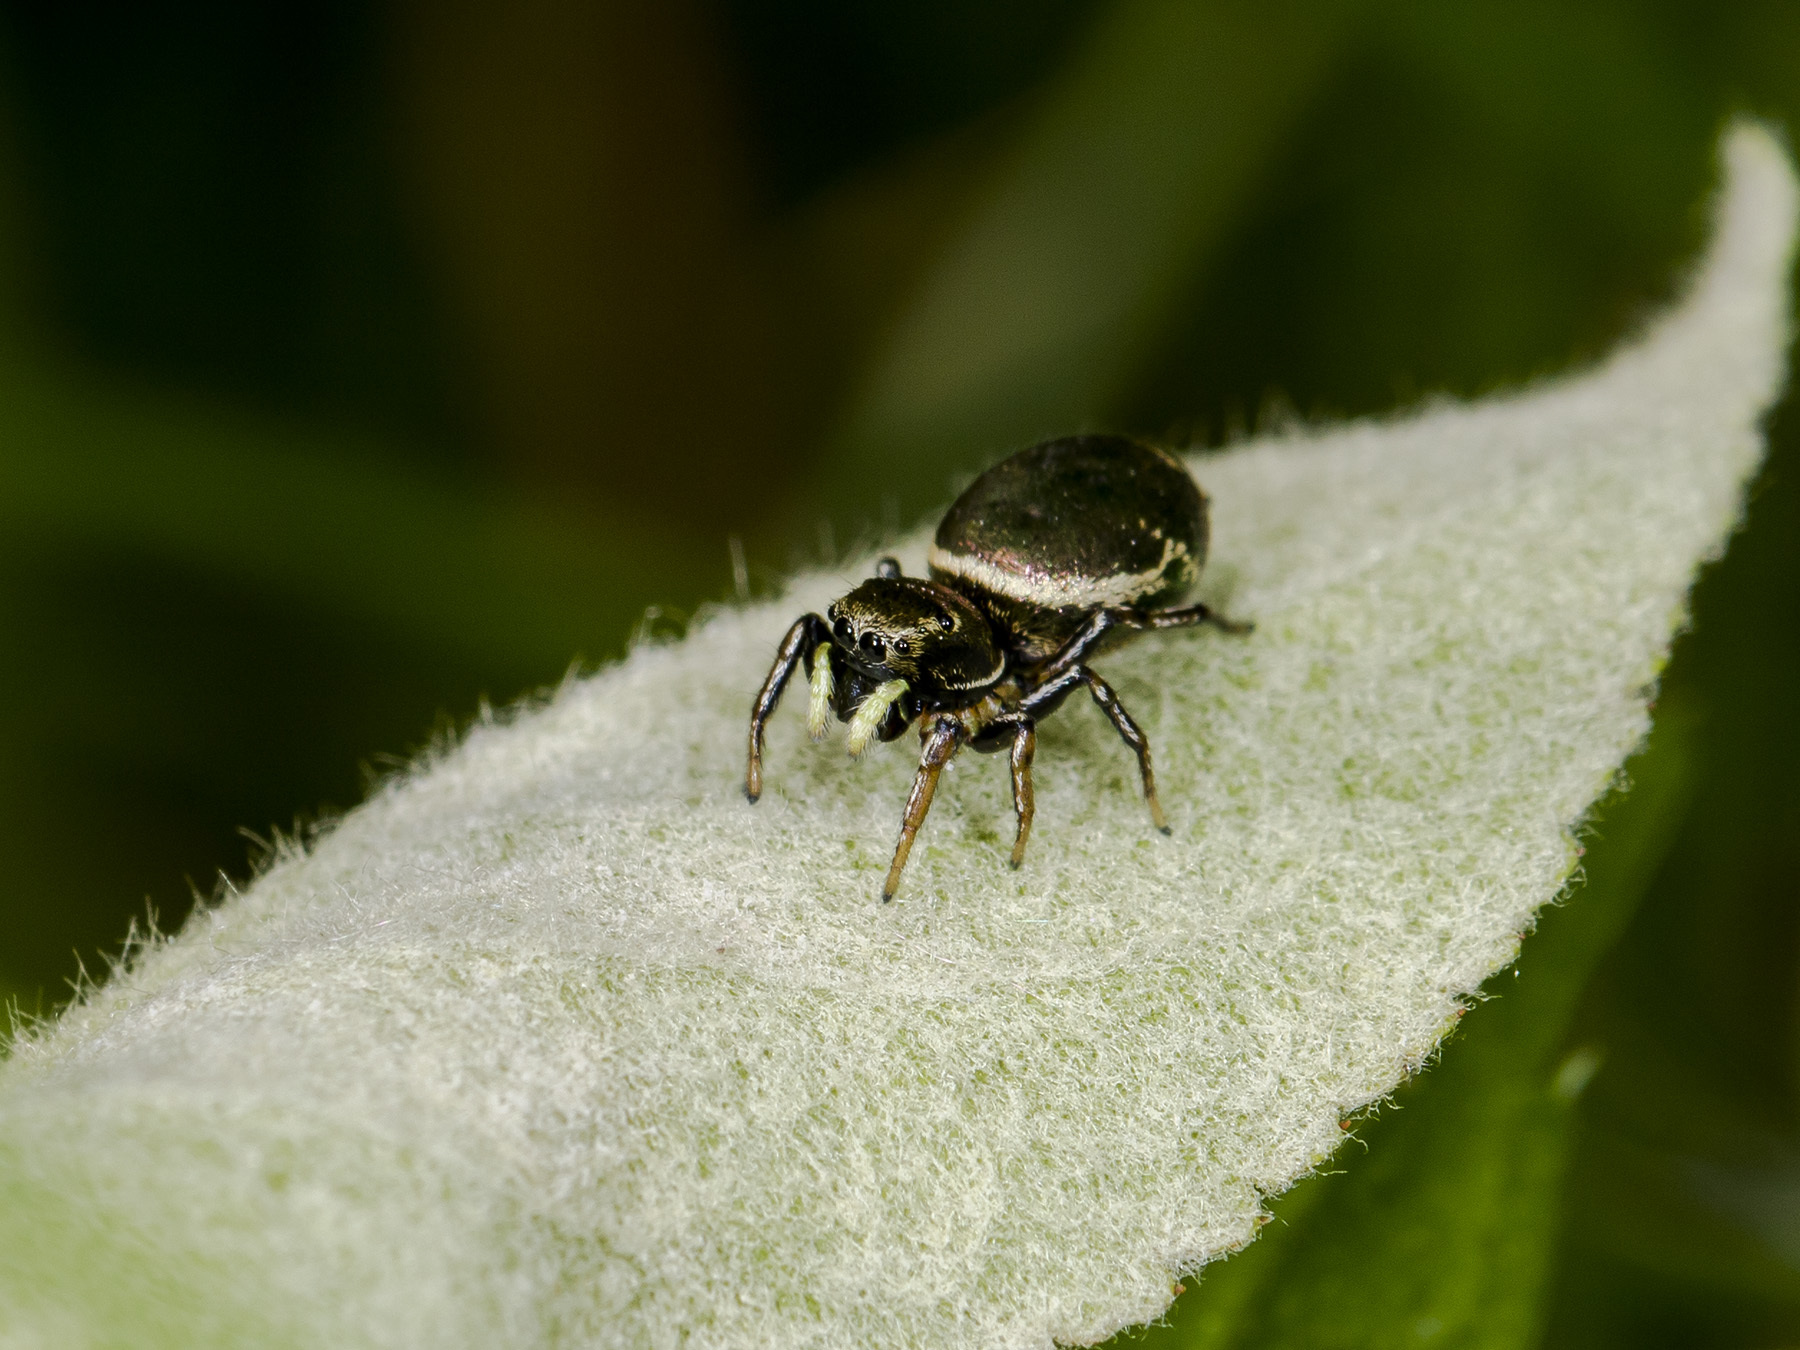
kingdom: Animalia
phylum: Arthropoda
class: Arachnida
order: Araneae
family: Salticidae
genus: Heliophanus
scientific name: Heliophanus auratus
